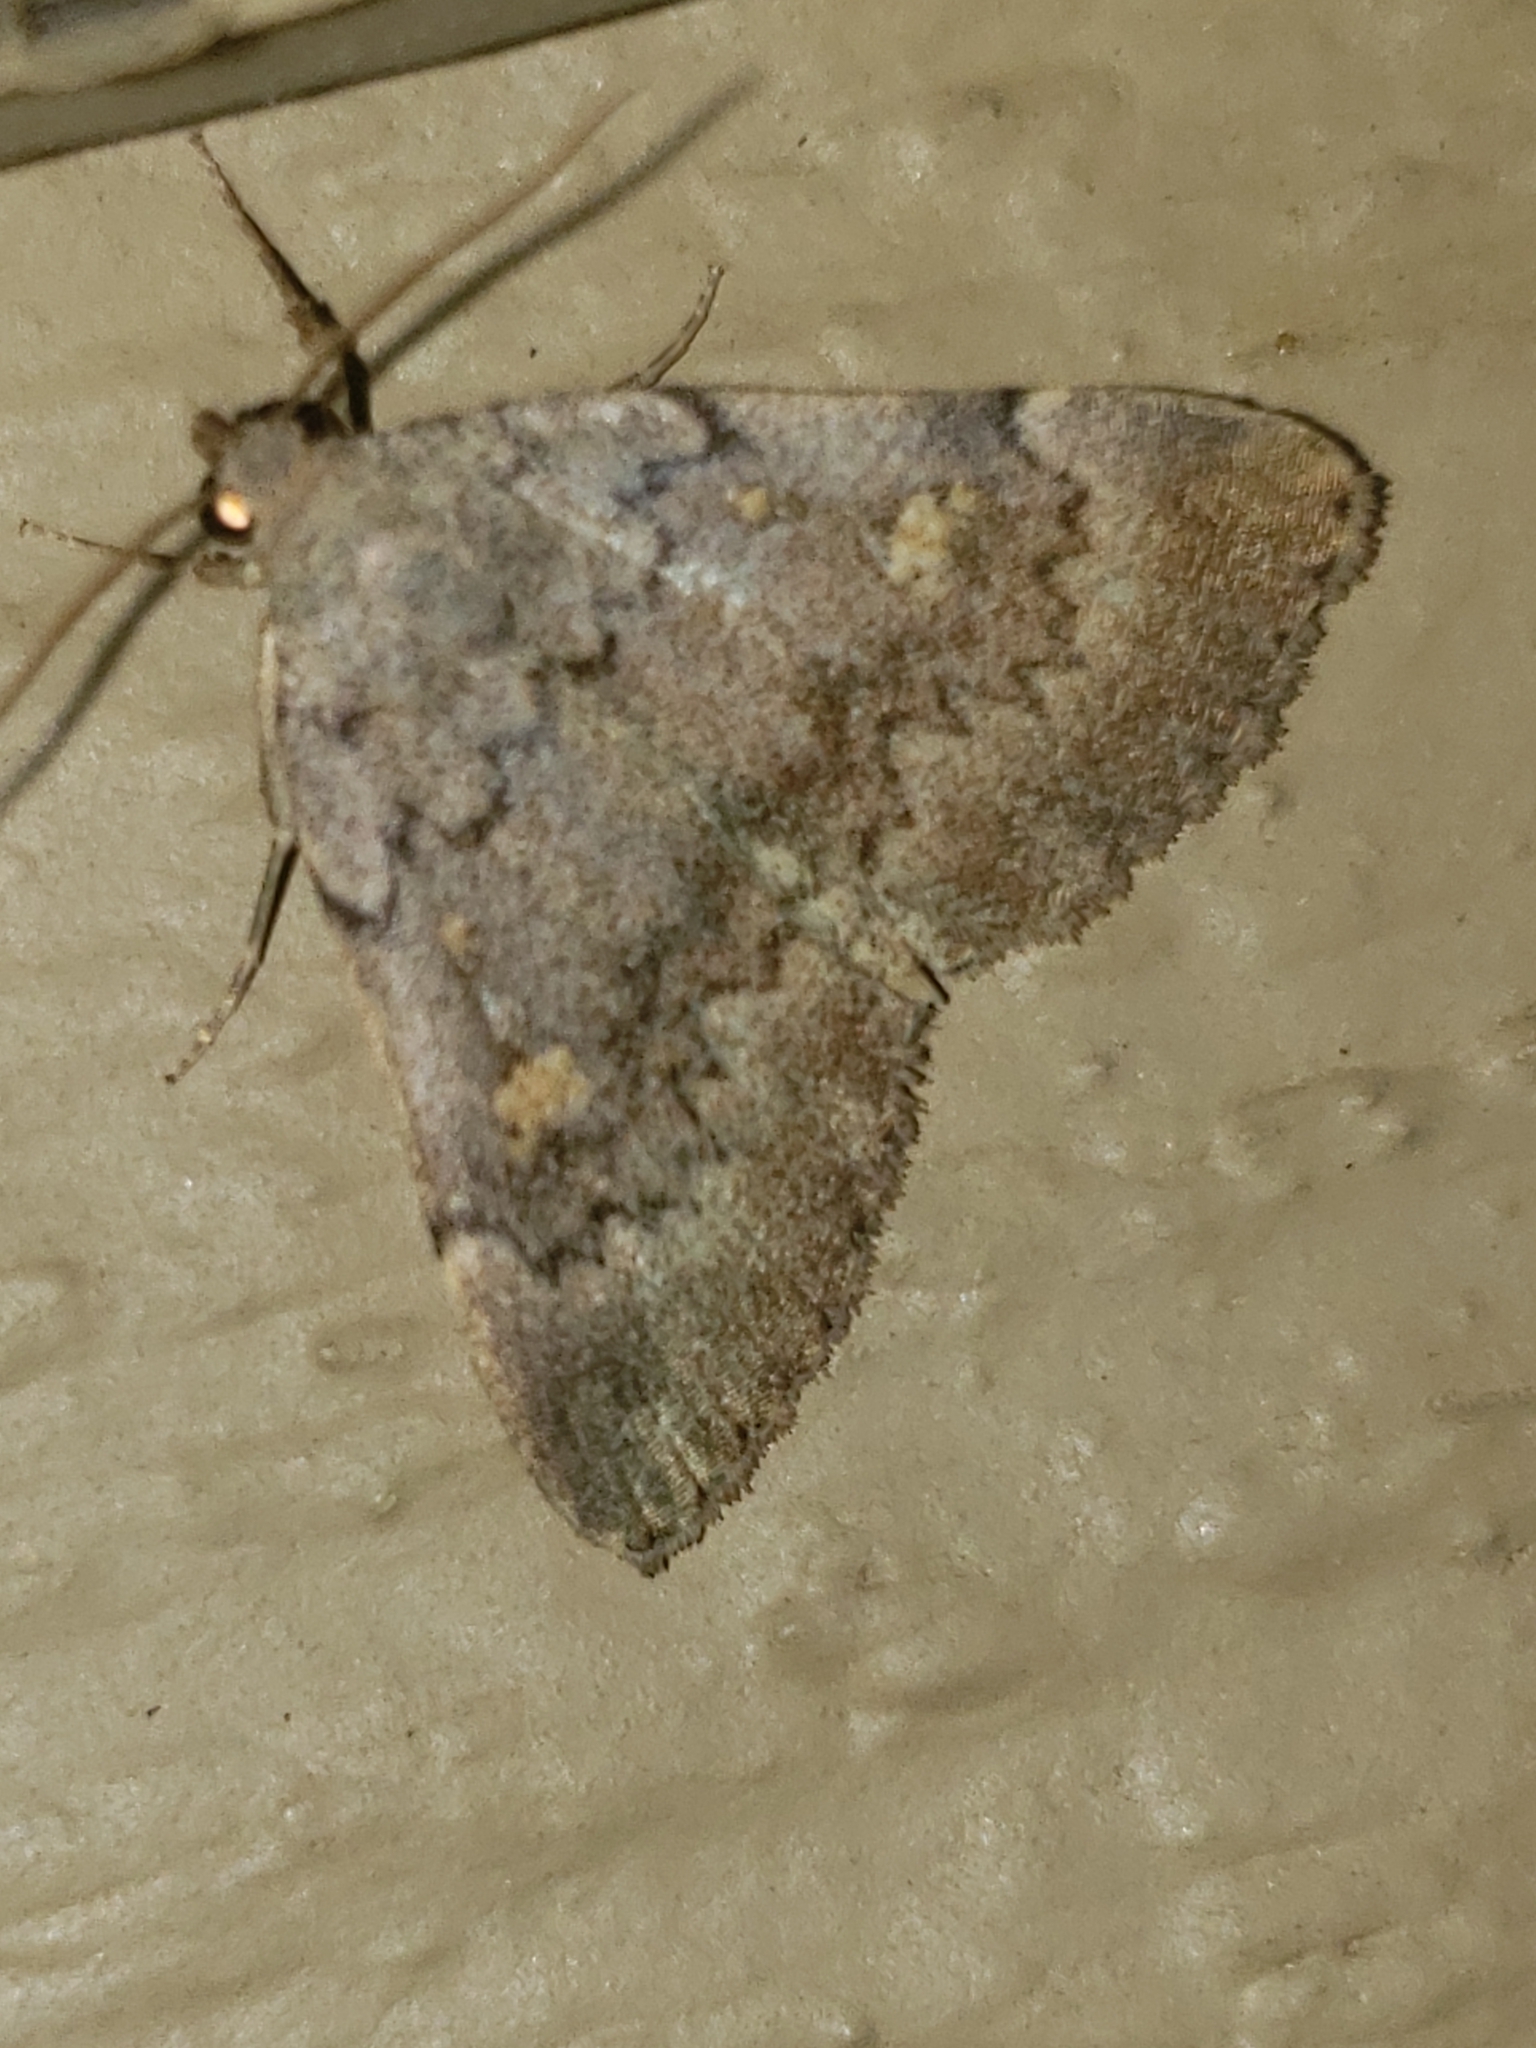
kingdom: Animalia
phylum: Arthropoda
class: Insecta
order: Lepidoptera
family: Erebidae
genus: Idia
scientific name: Idia aemula
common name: Common idia moth
